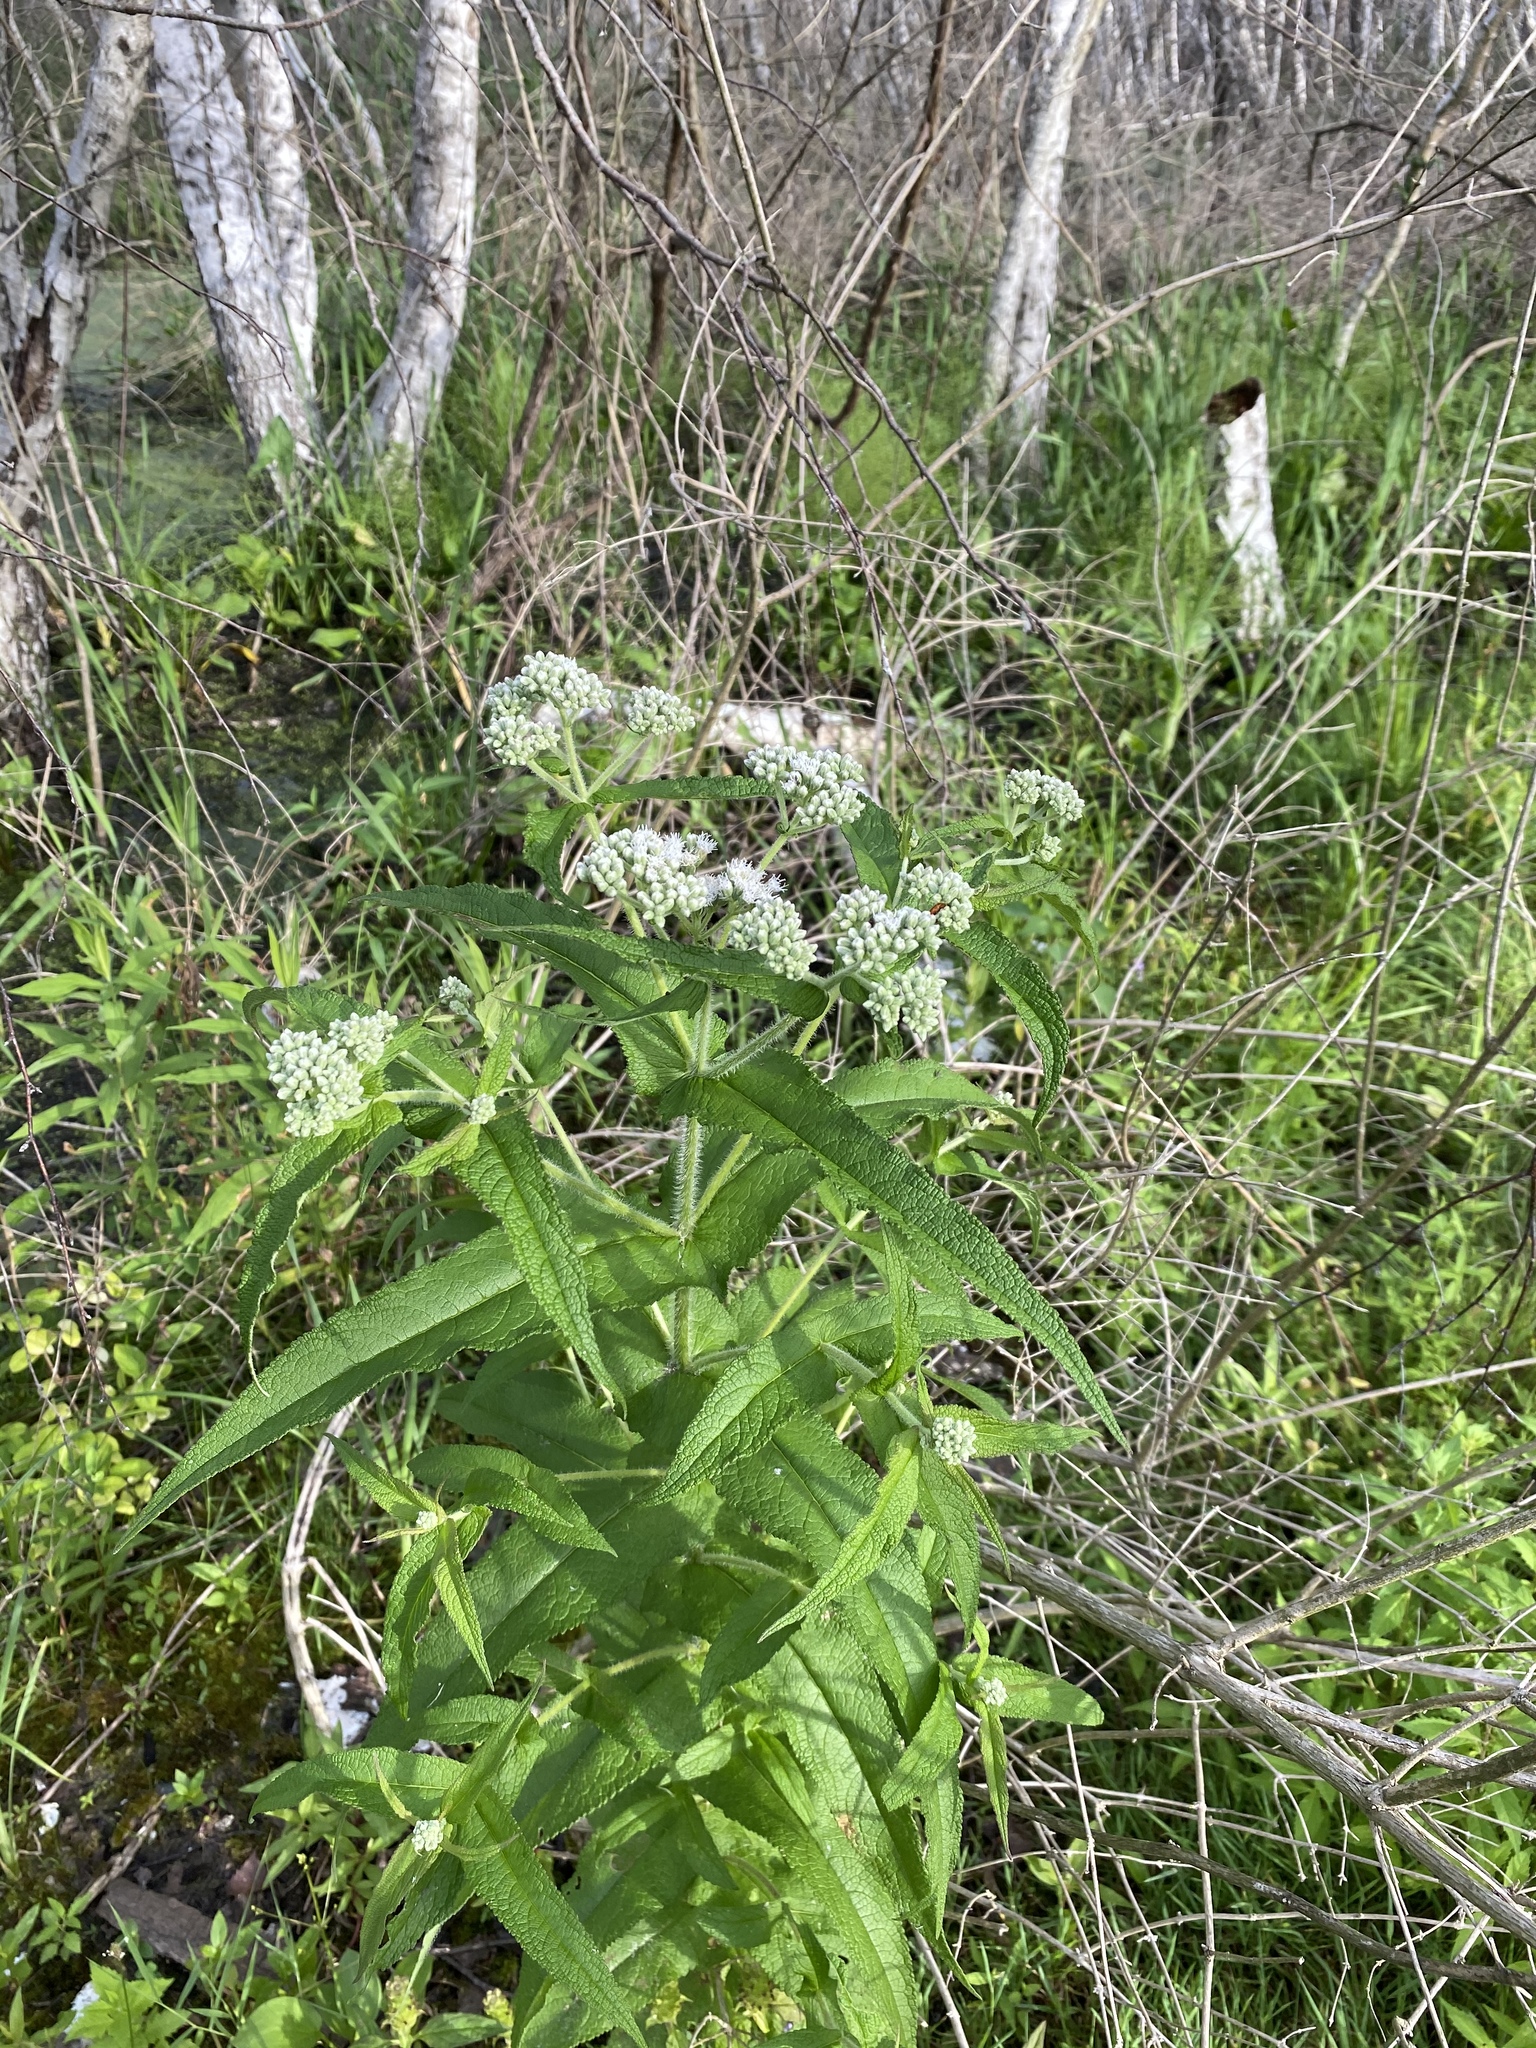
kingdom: Plantae
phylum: Tracheophyta
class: Magnoliopsida
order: Asterales
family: Asteraceae
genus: Eupatorium
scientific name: Eupatorium perfoliatum
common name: Boneset
